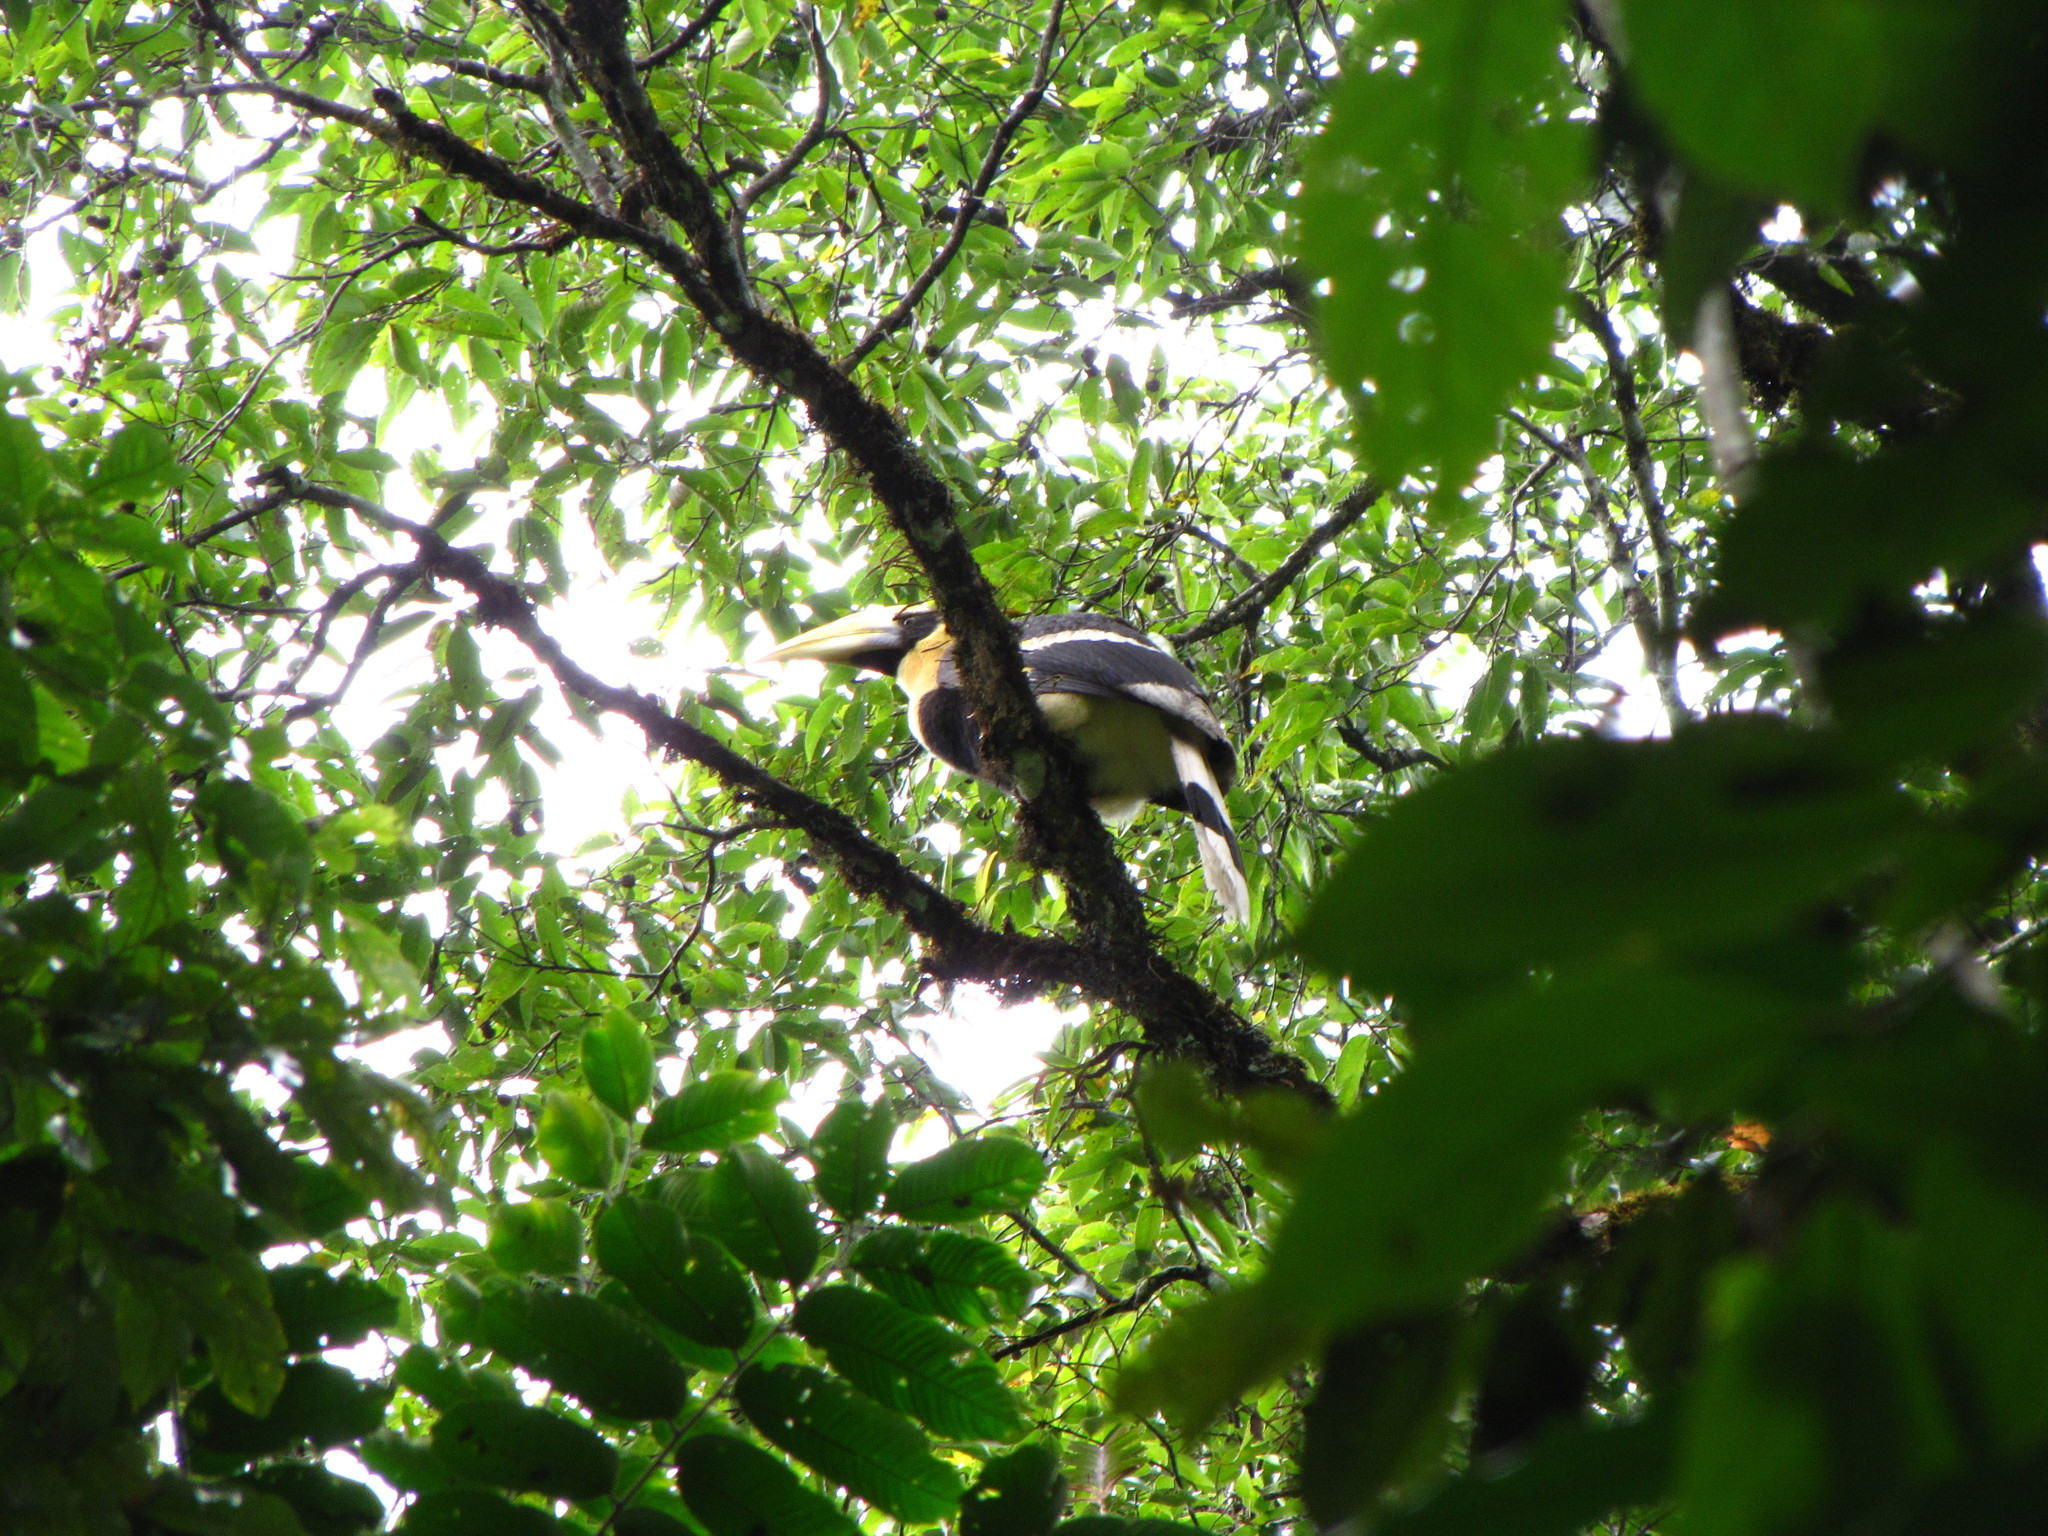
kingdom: Animalia
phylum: Chordata
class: Aves
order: Bucerotiformes
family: Bucerotidae
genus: Buceros
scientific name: Buceros bicornis
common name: Great hornbill
